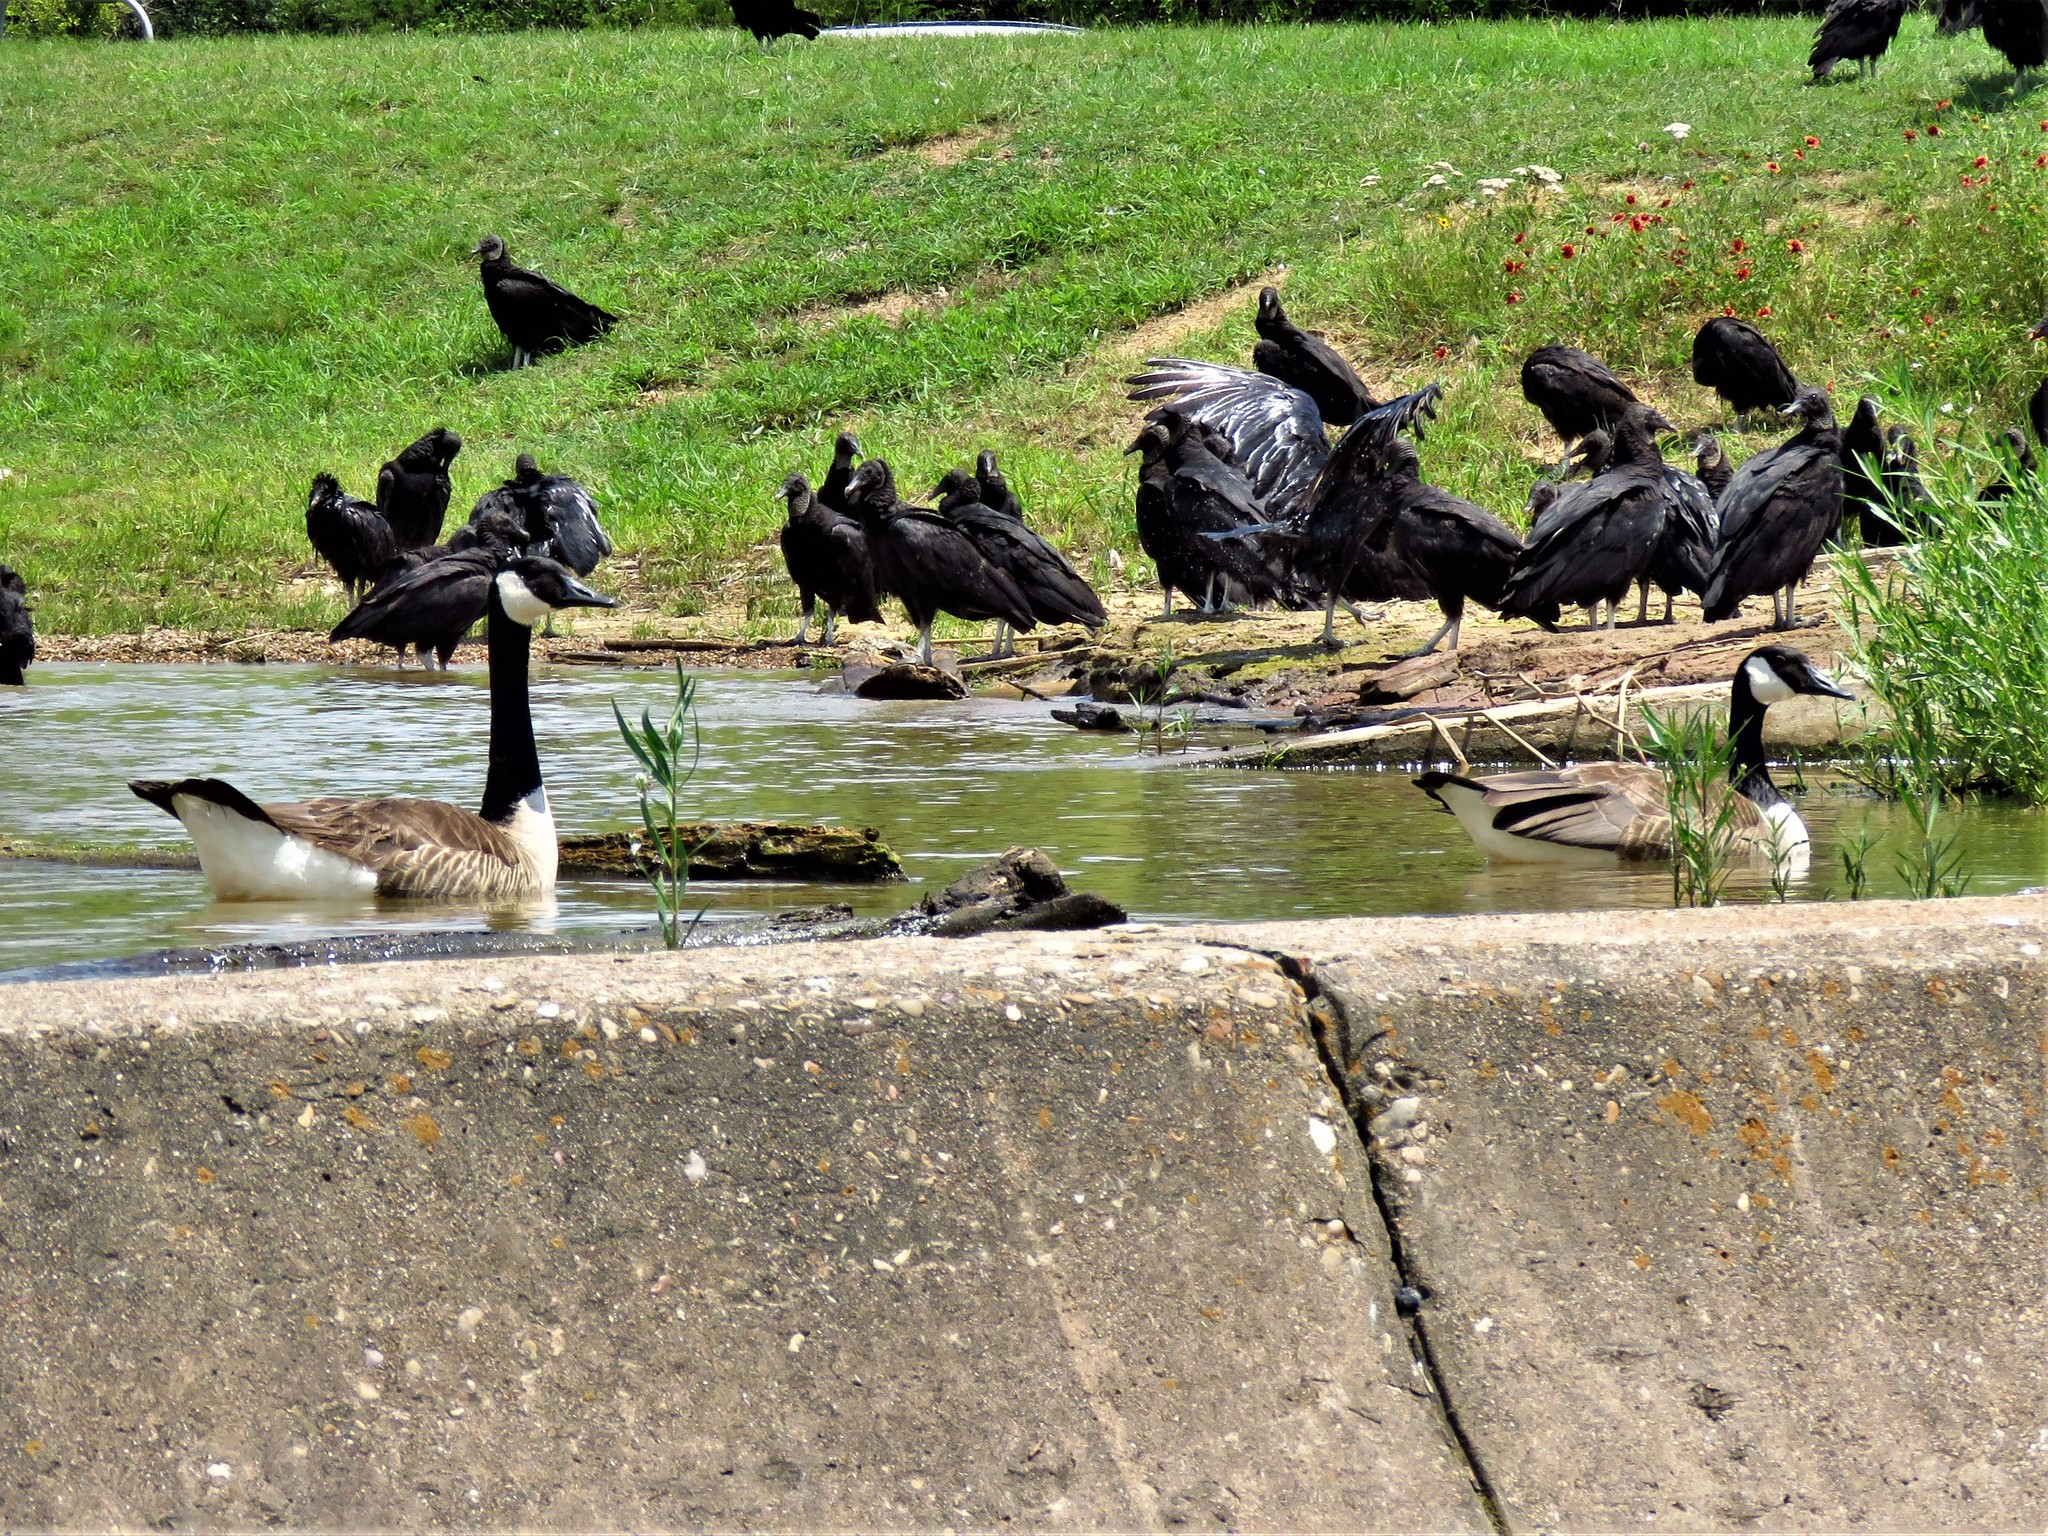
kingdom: Animalia
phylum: Chordata
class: Aves
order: Anseriformes
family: Anatidae
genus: Branta
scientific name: Branta canadensis
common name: Canada goose
